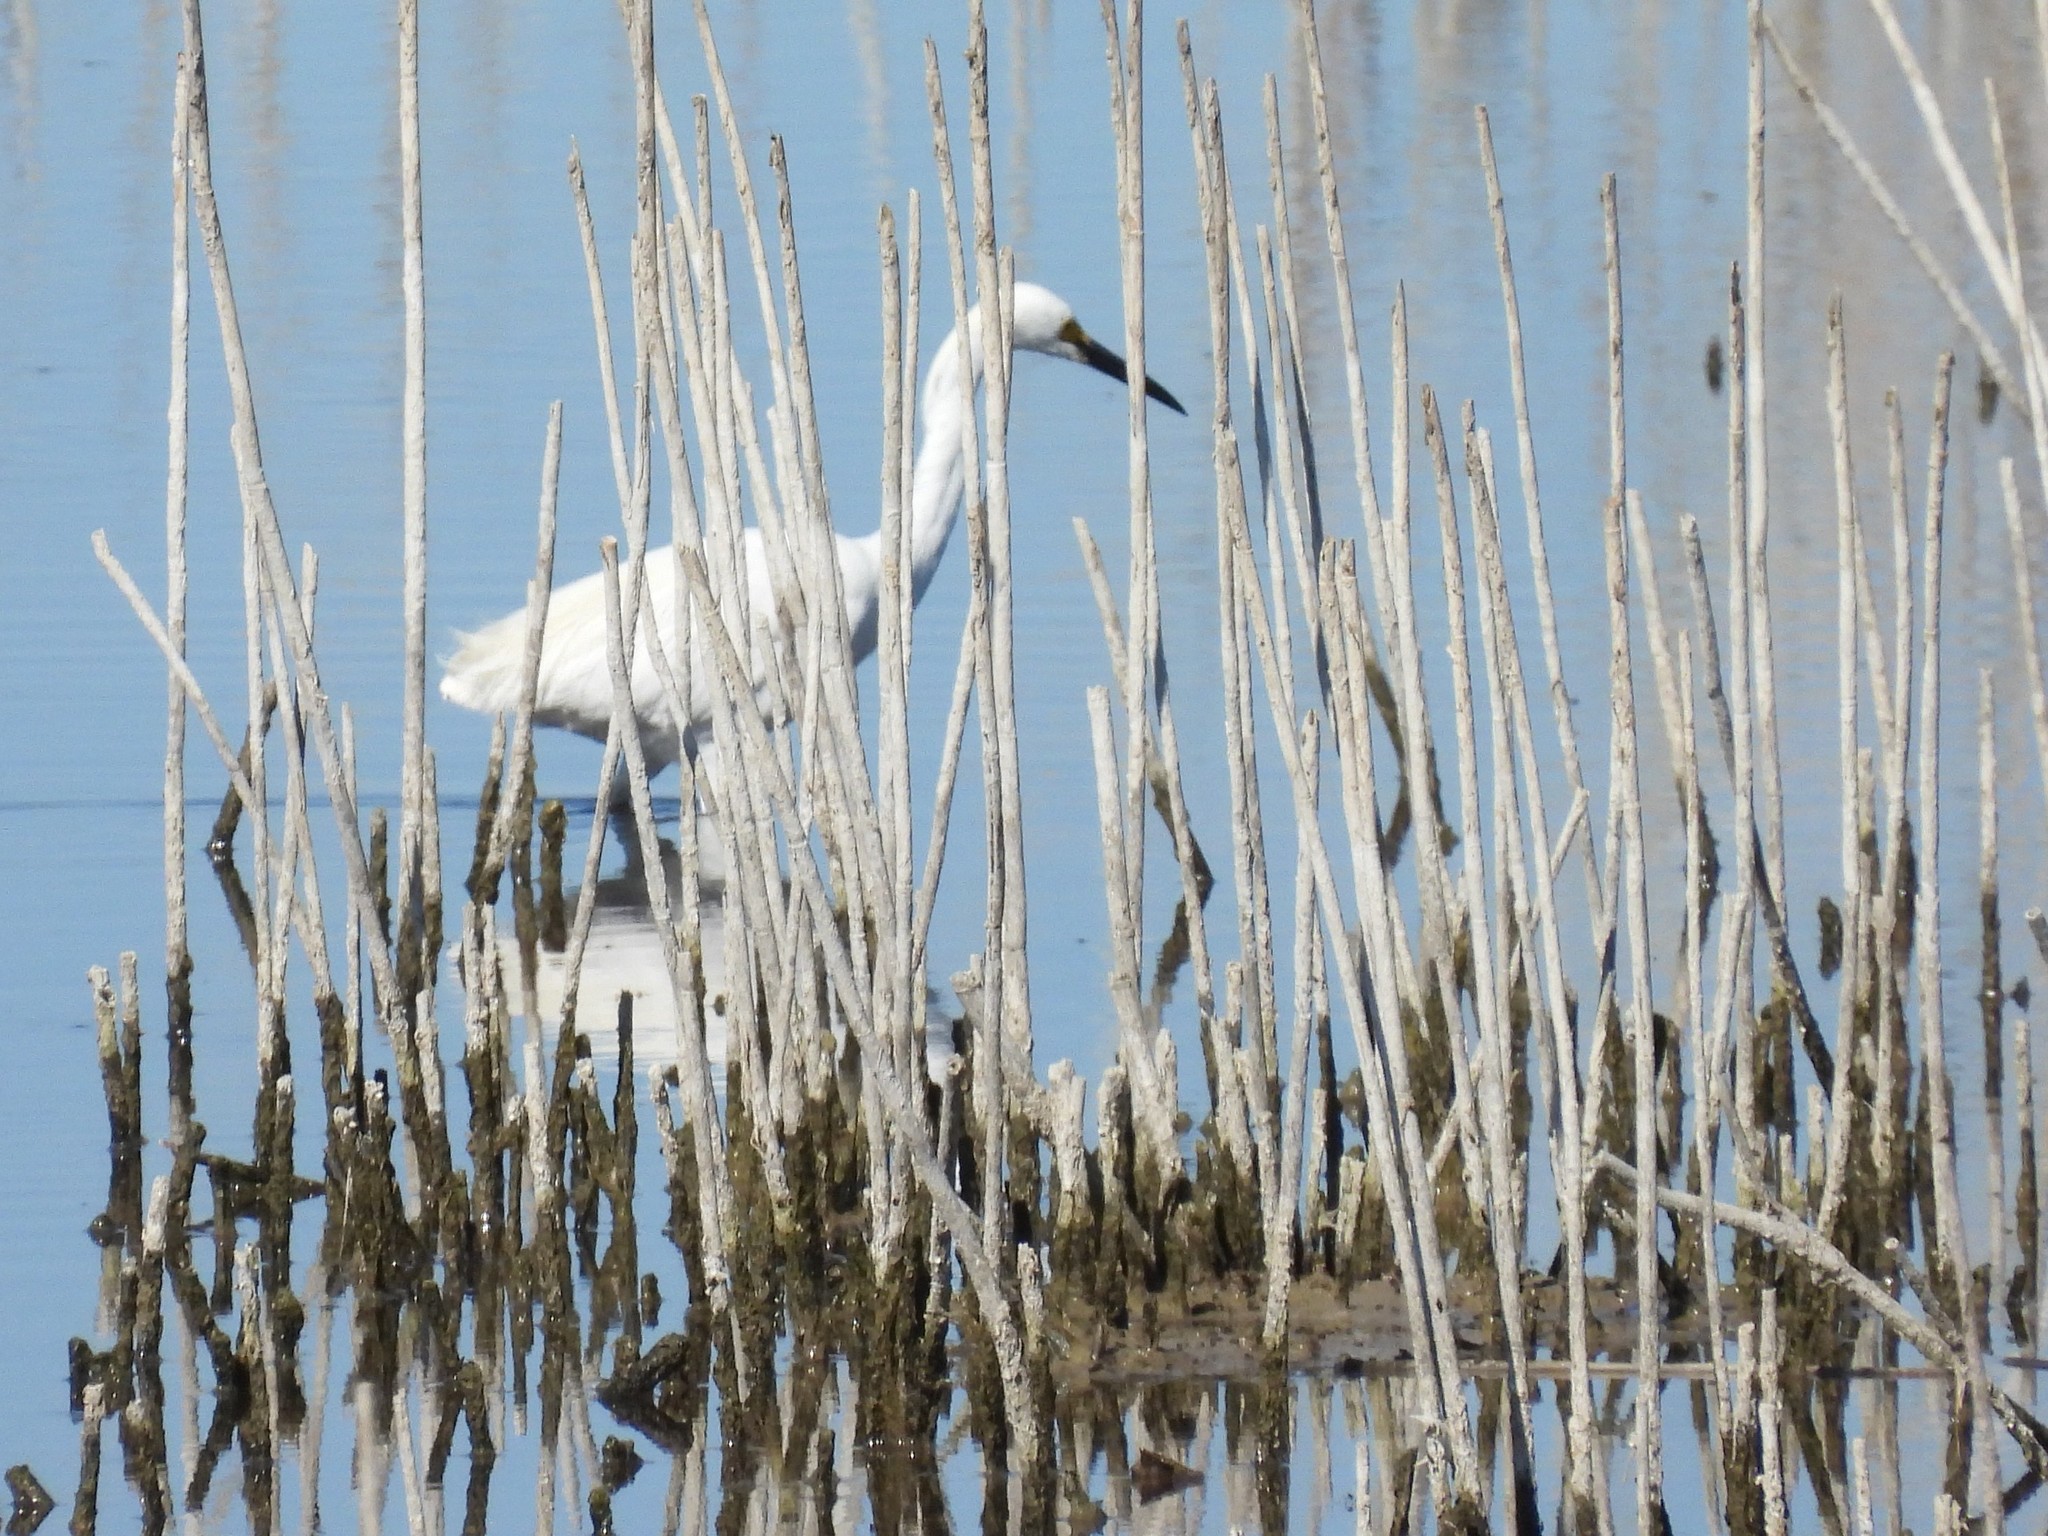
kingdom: Animalia
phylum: Chordata
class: Aves
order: Pelecaniformes
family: Ardeidae
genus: Egretta
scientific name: Egretta thula
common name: Snowy egret
